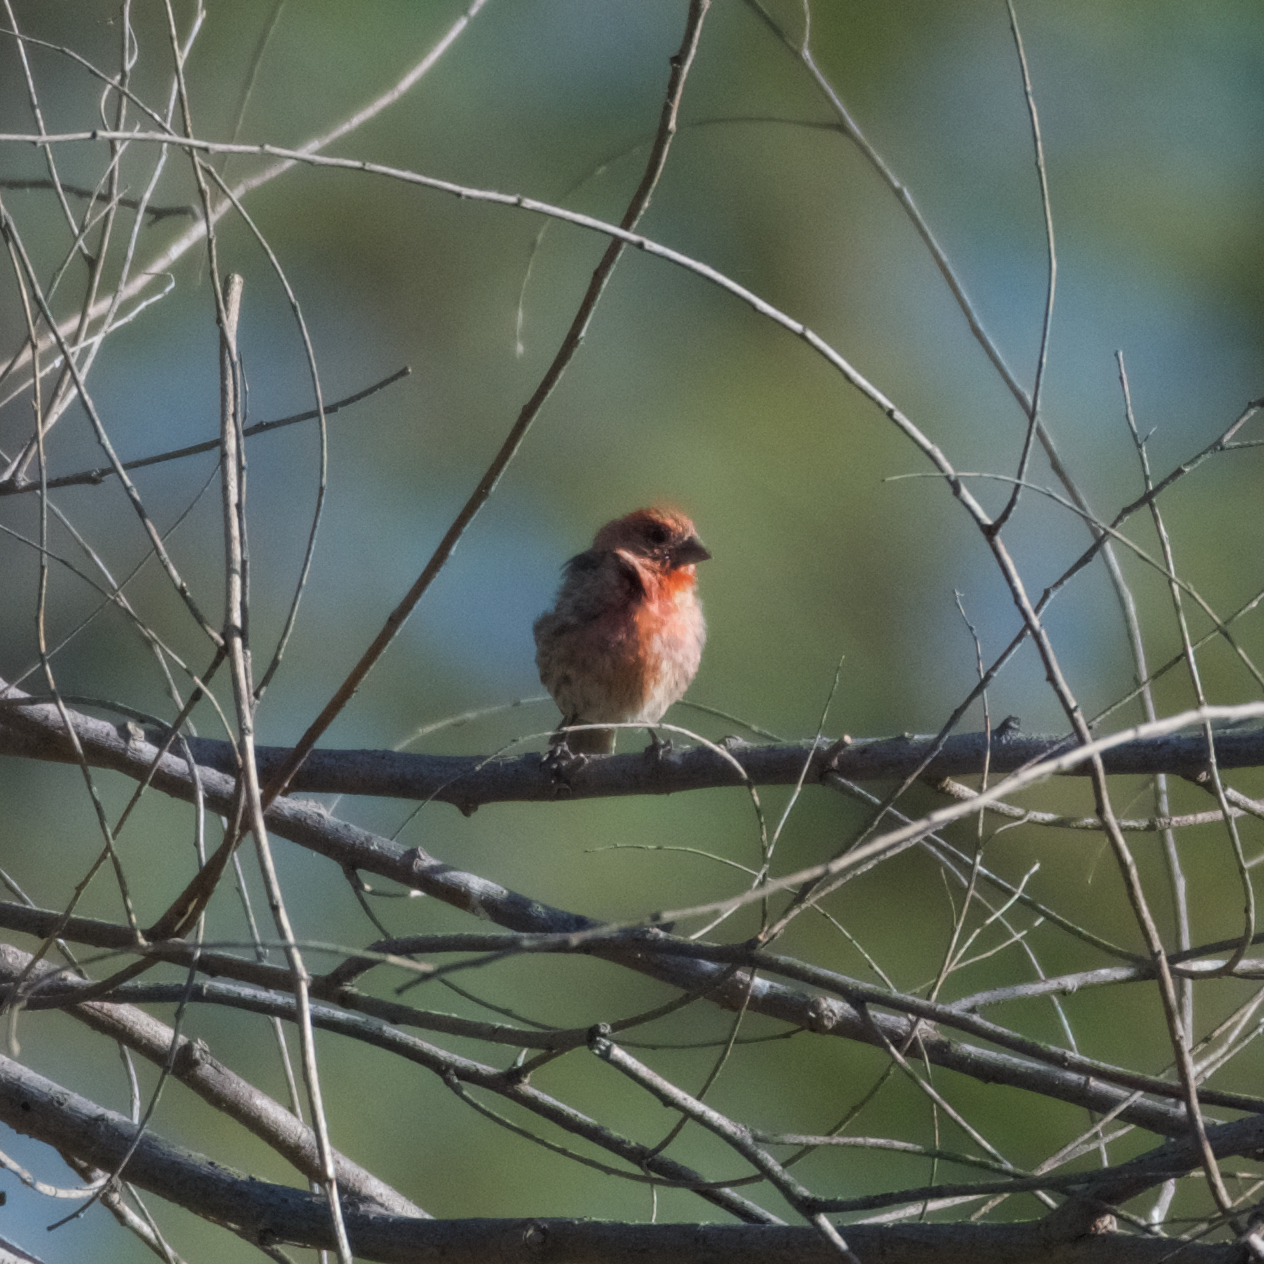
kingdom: Animalia
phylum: Chordata
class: Aves
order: Passeriformes
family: Fringillidae
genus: Haemorhous
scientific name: Haemorhous mexicanus
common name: House finch
